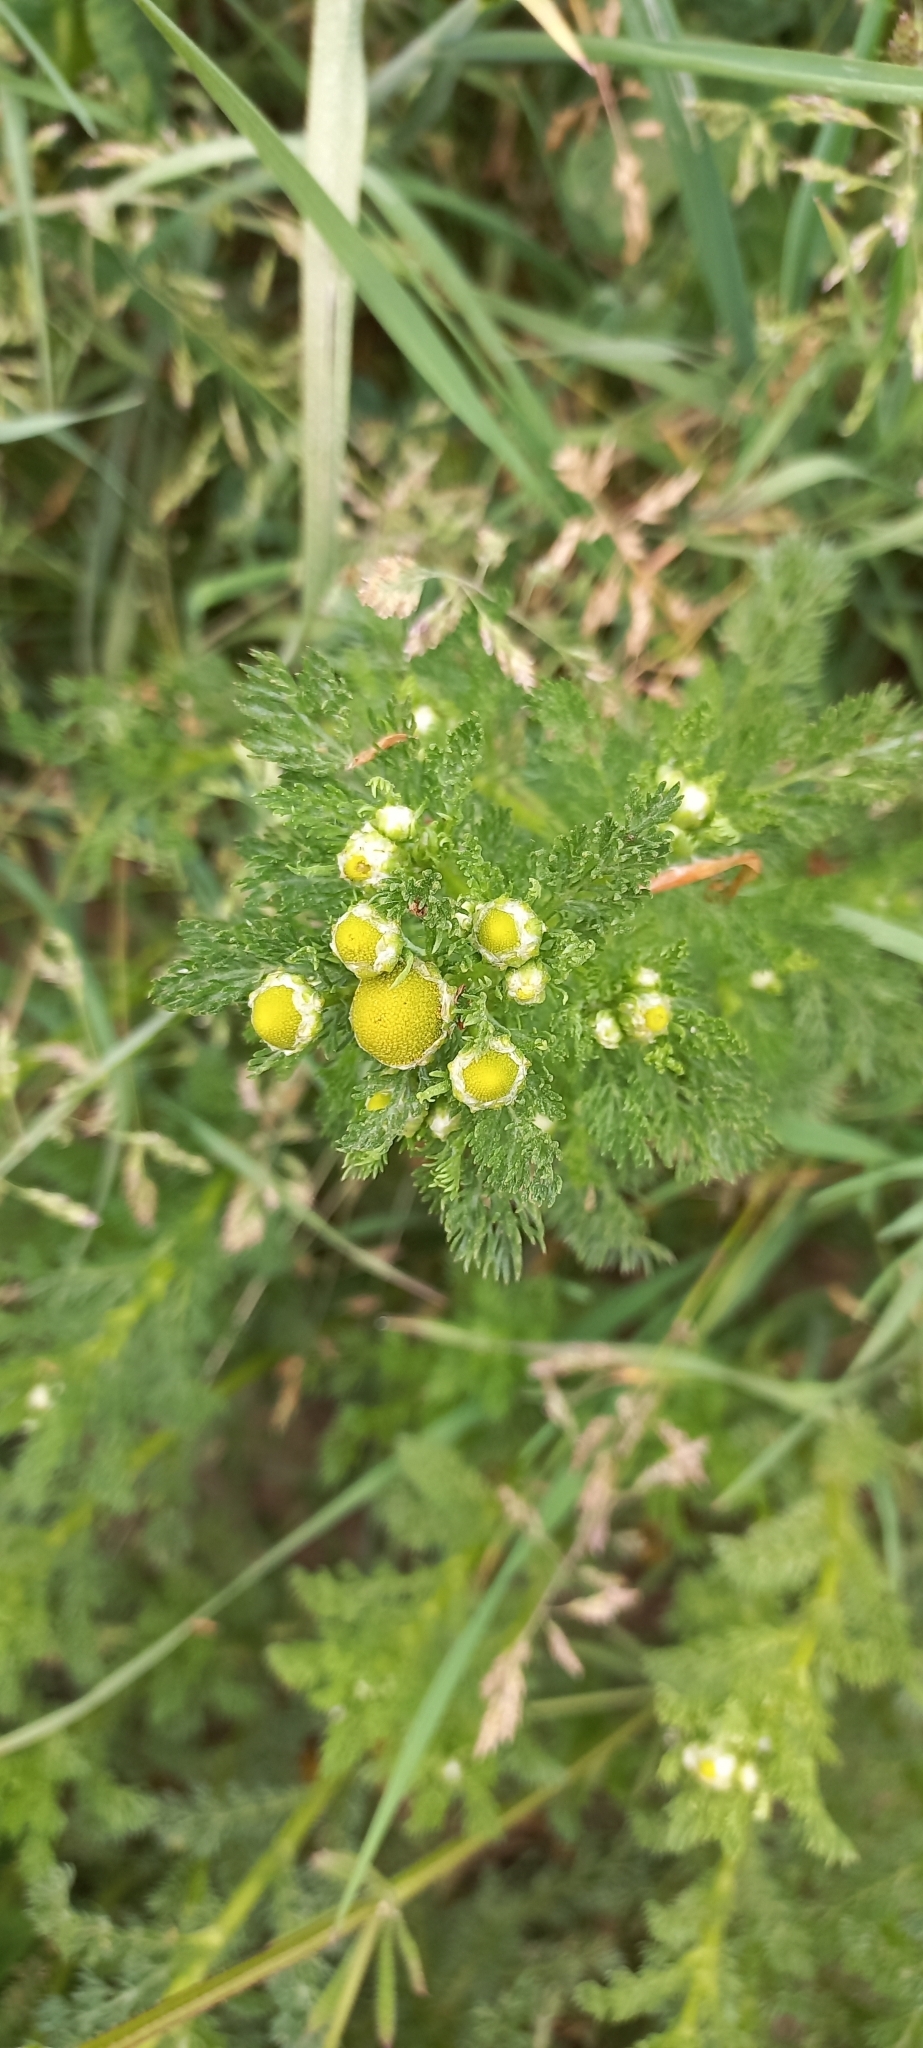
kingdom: Plantae
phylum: Tracheophyta
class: Magnoliopsida
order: Asterales
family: Asteraceae
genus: Matricaria
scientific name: Matricaria discoidea
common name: Disc mayweed
